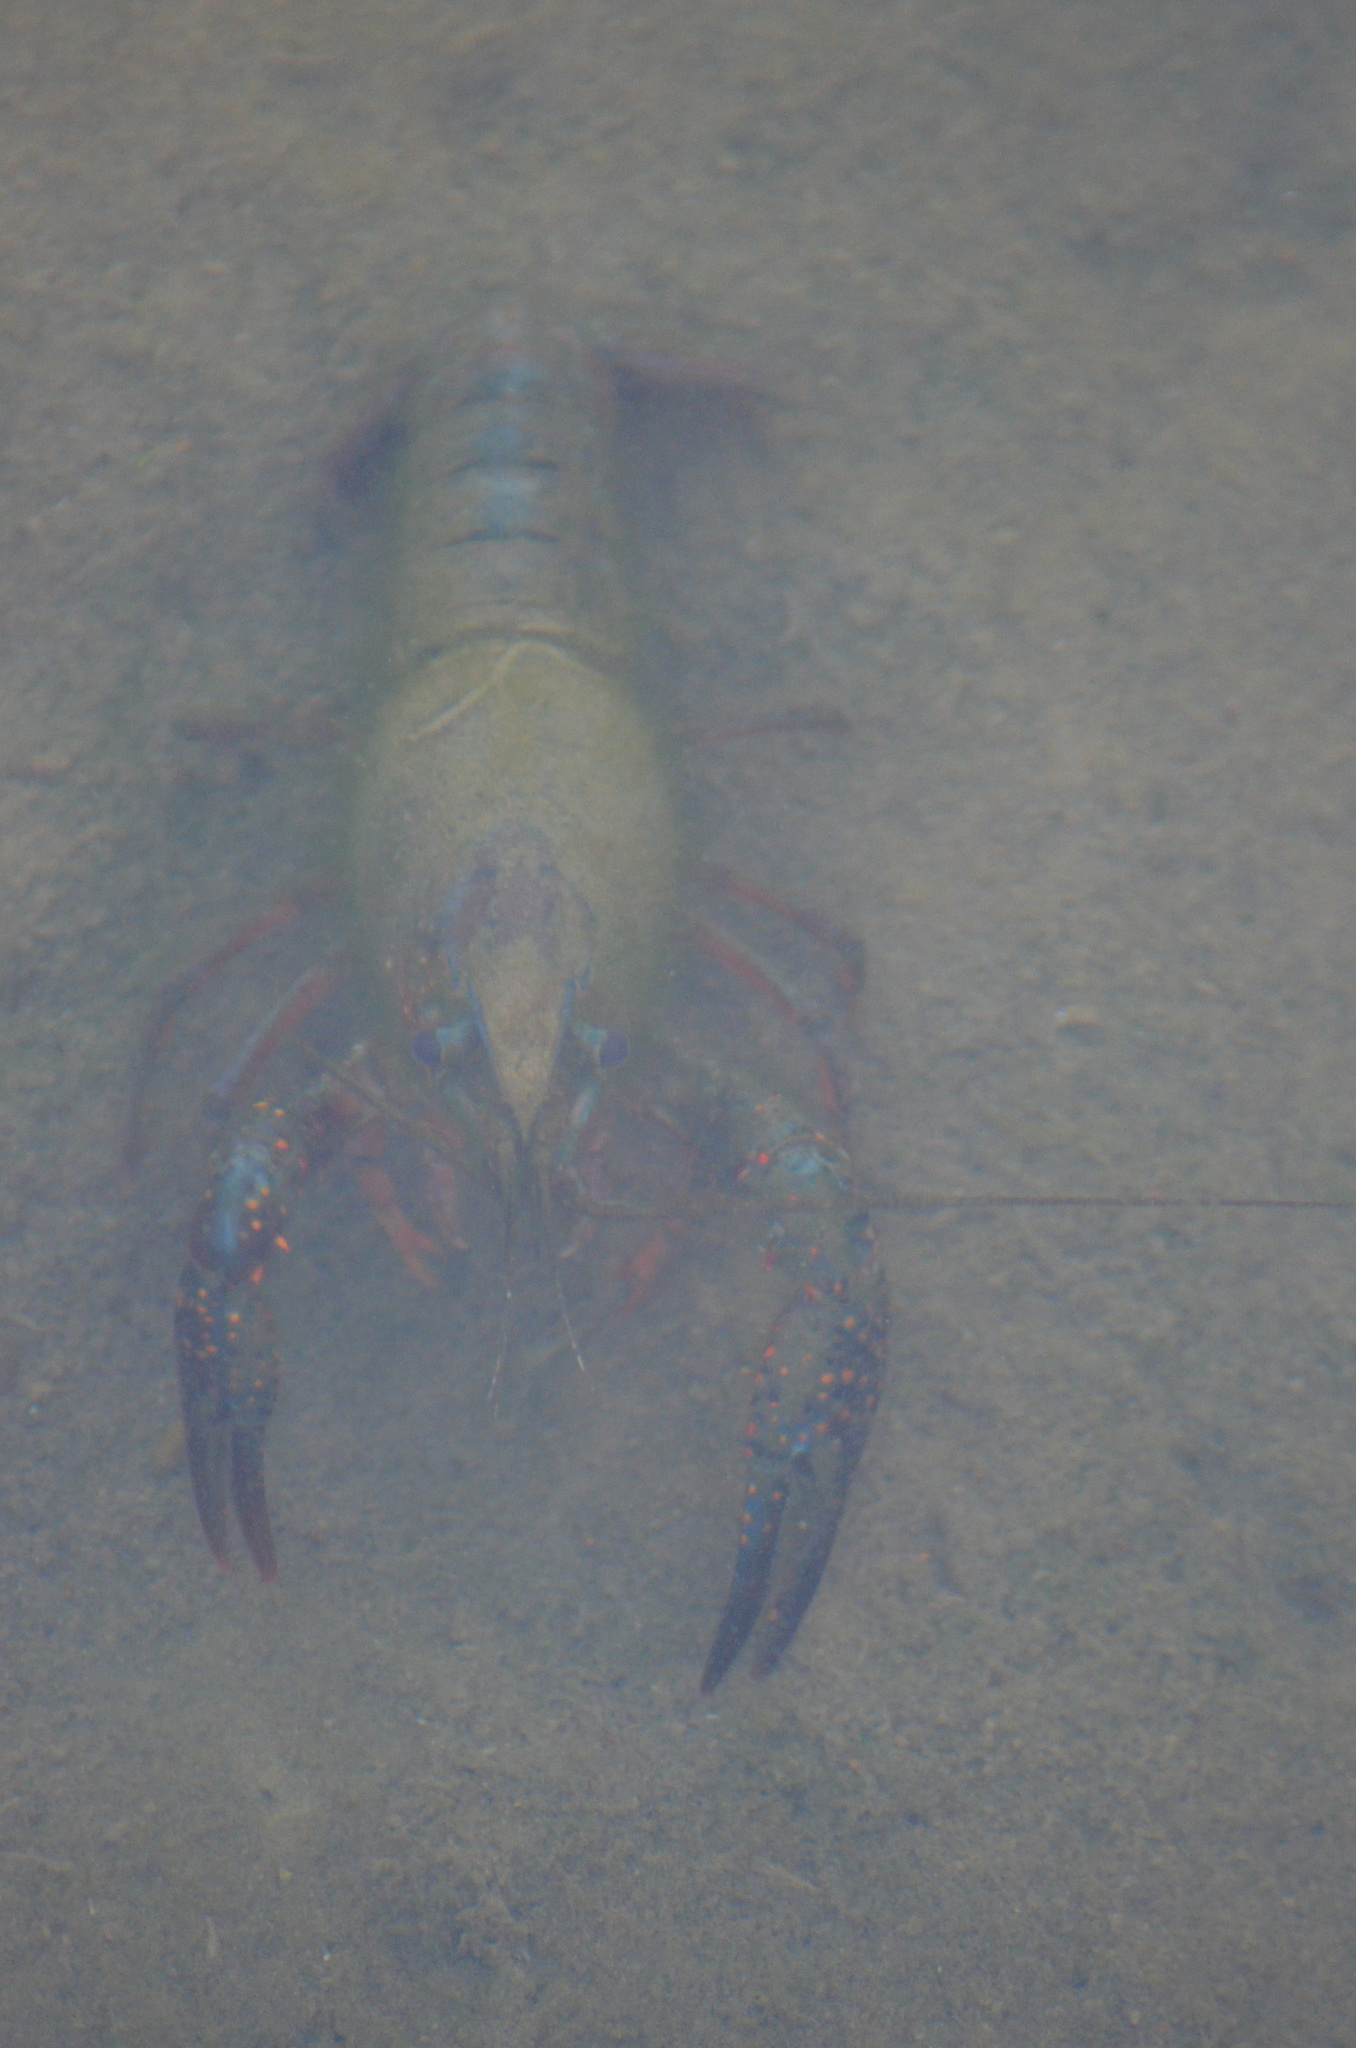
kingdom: Animalia
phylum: Arthropoda
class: Malacostraca
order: Decapoda
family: Cambaridae
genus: Procambarus
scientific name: Procambarus clarkii
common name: Red swamp crayfish
